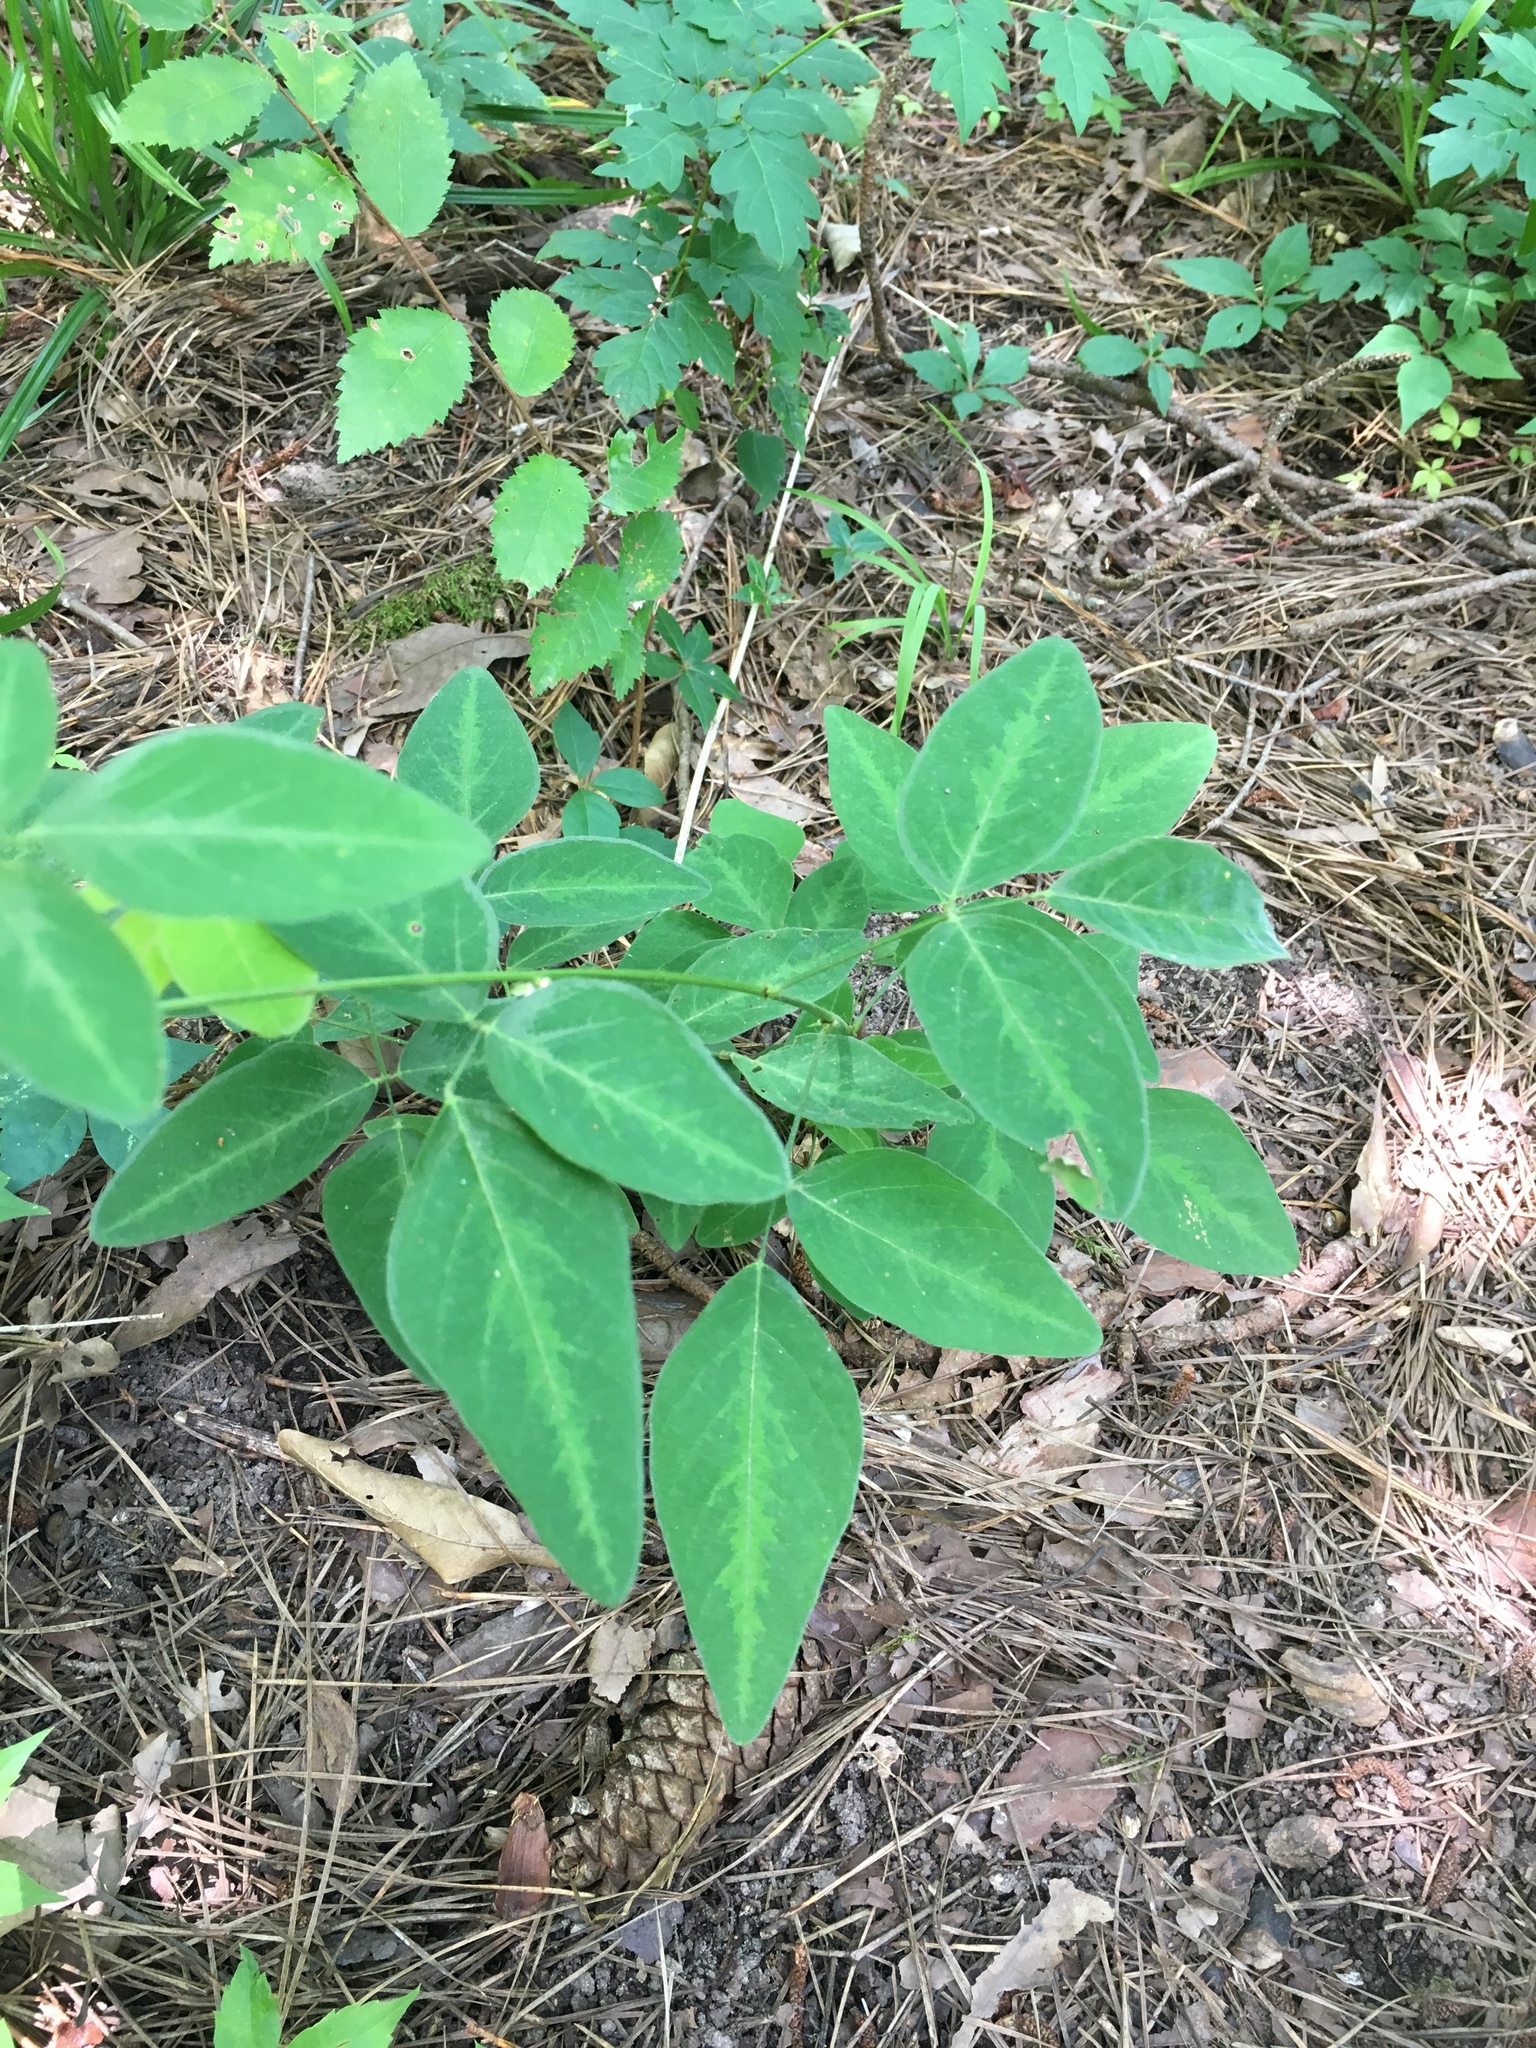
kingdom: Plantae
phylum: Tracheophyta
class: Magnoliopsida
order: Fabales
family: Fabaceae
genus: Desmodium
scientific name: Desmodium perplexum
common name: Perplexed tick trefoil
